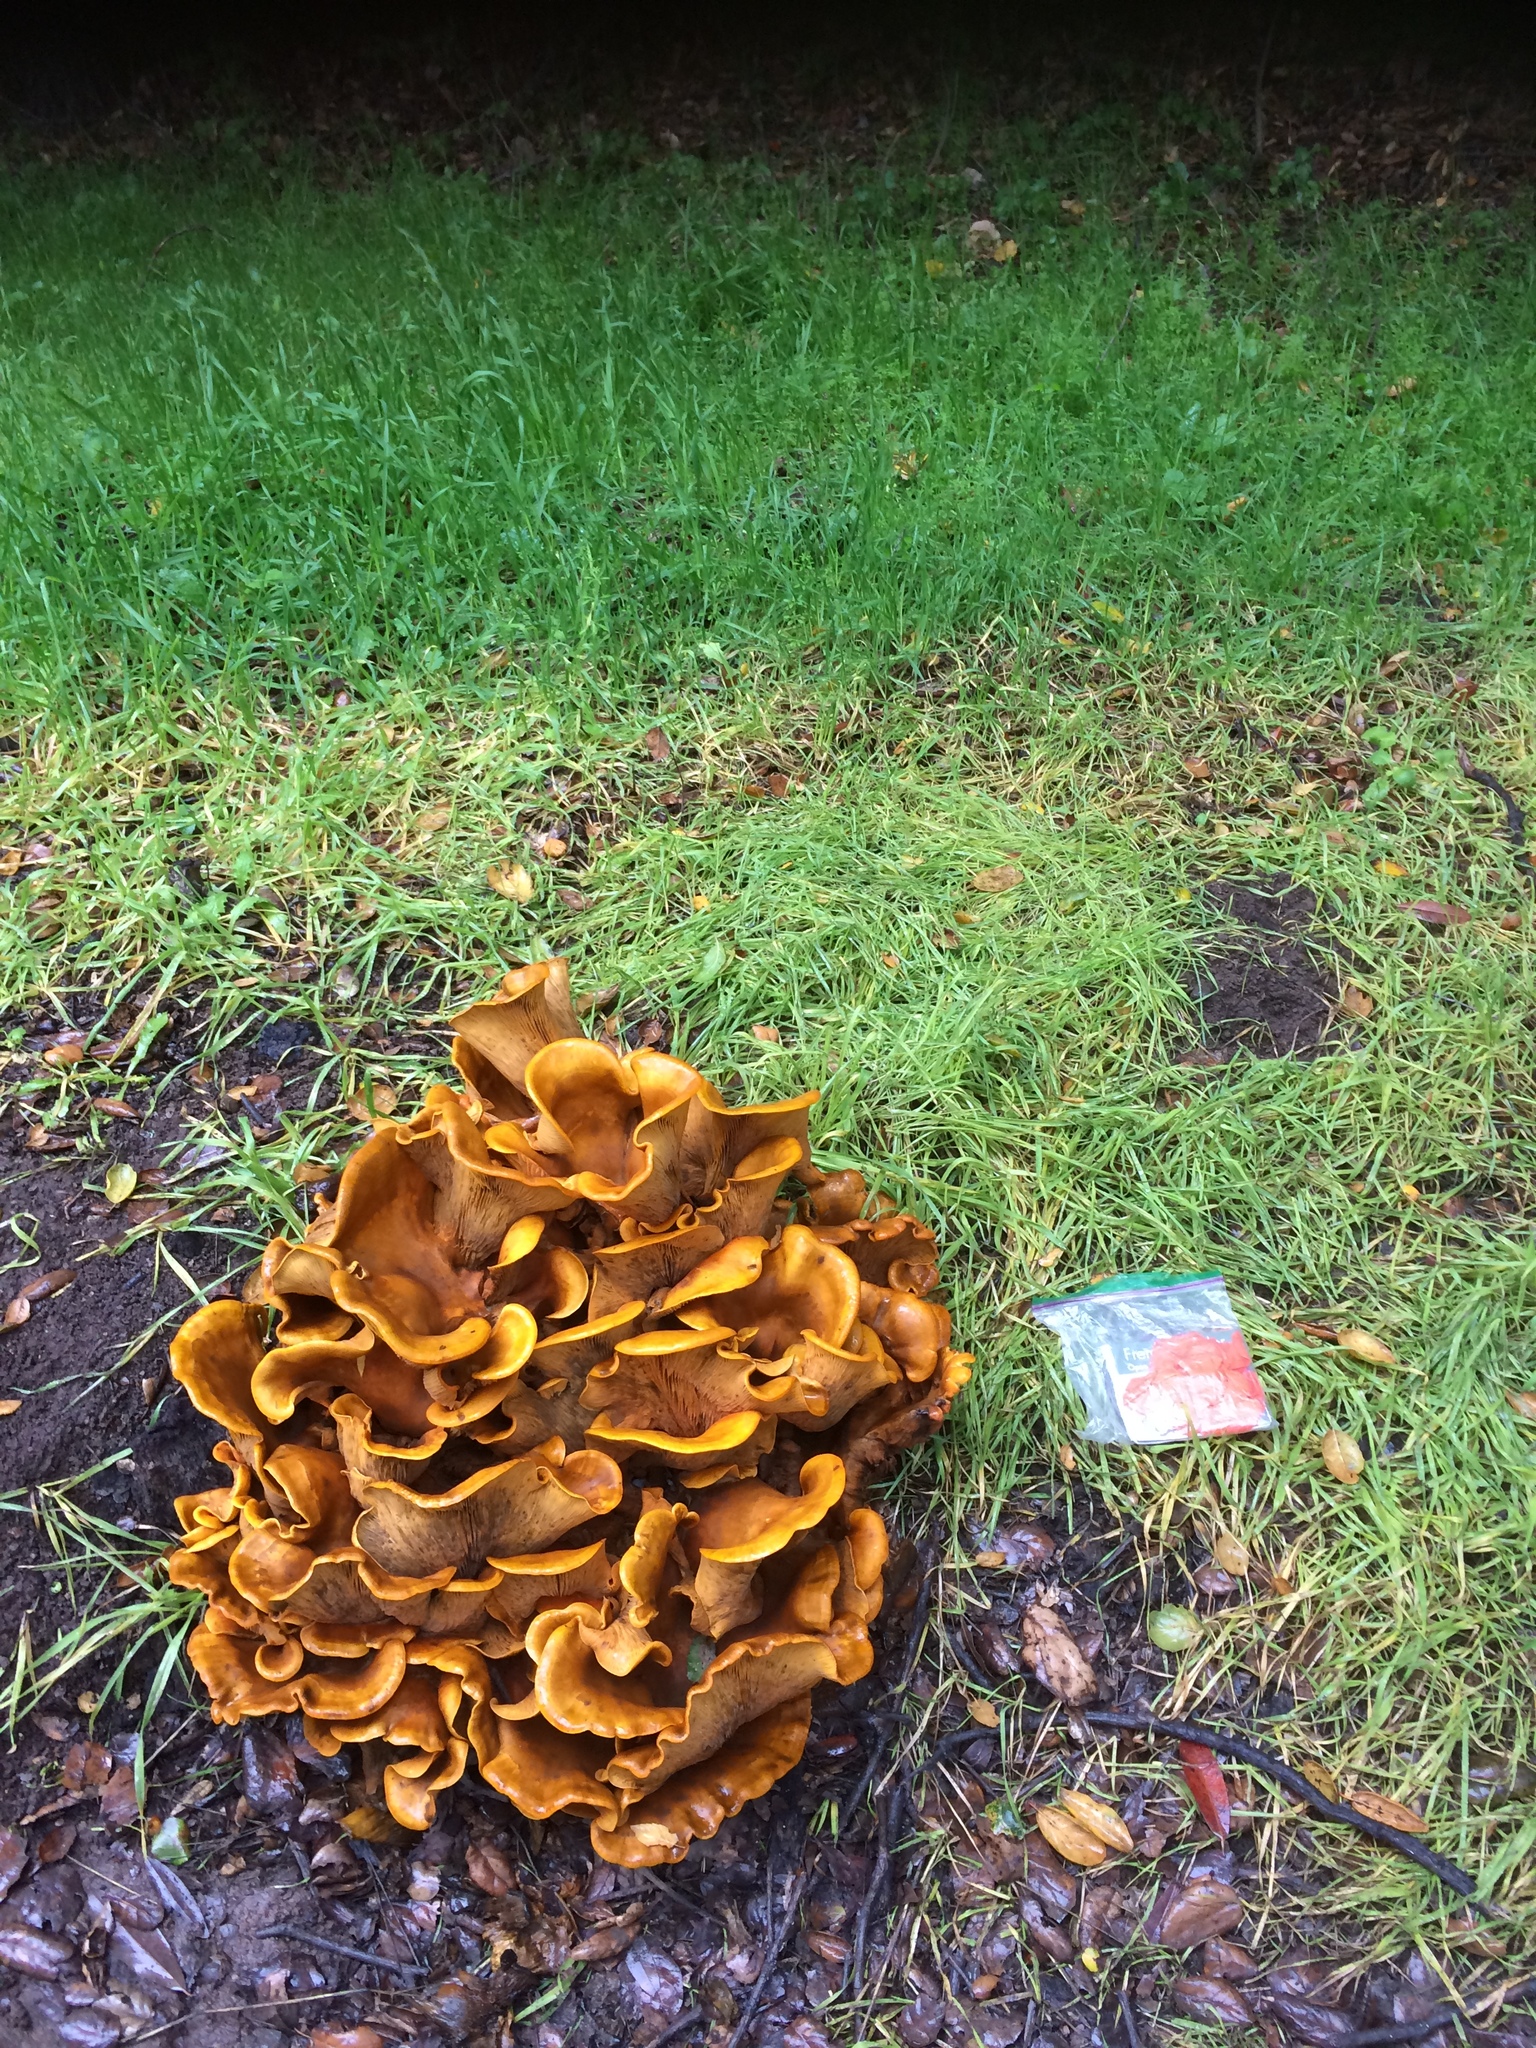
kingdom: Fungi
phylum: Basidiomycota
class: Agaricomycetes
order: Agaricales
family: Omphalotaceae
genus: Omphalotus
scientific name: Omphalotus olivascens
